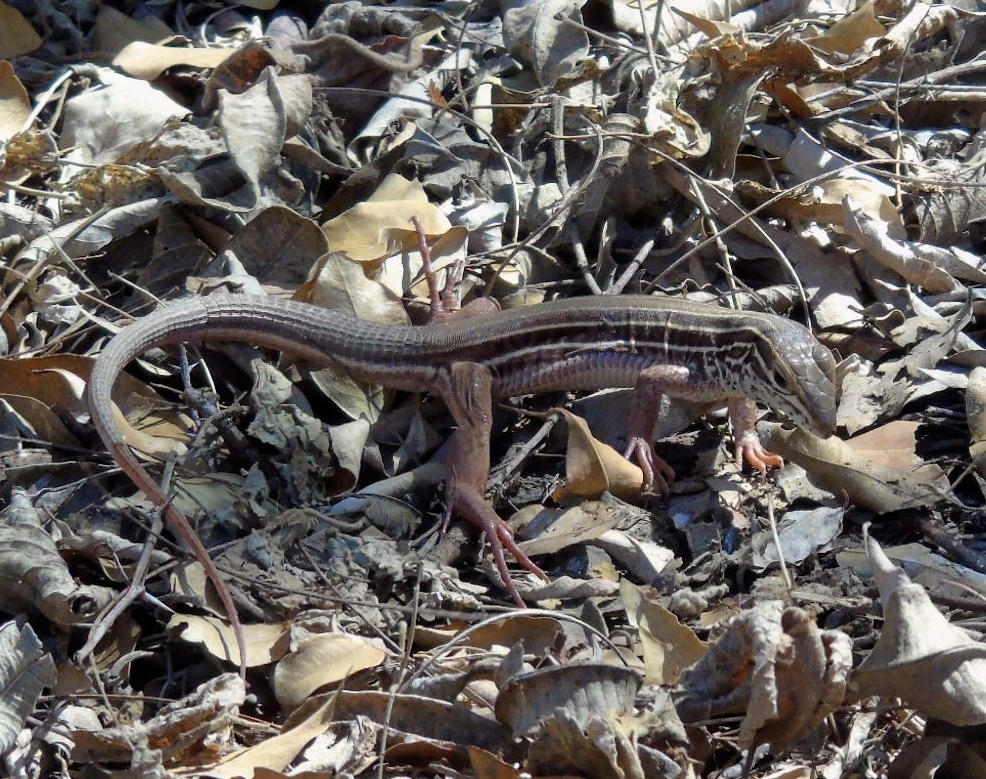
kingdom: Animalia
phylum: Chordata
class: Squamata
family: Teiidae
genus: Aspidoscelis
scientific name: Aspidoscelis
